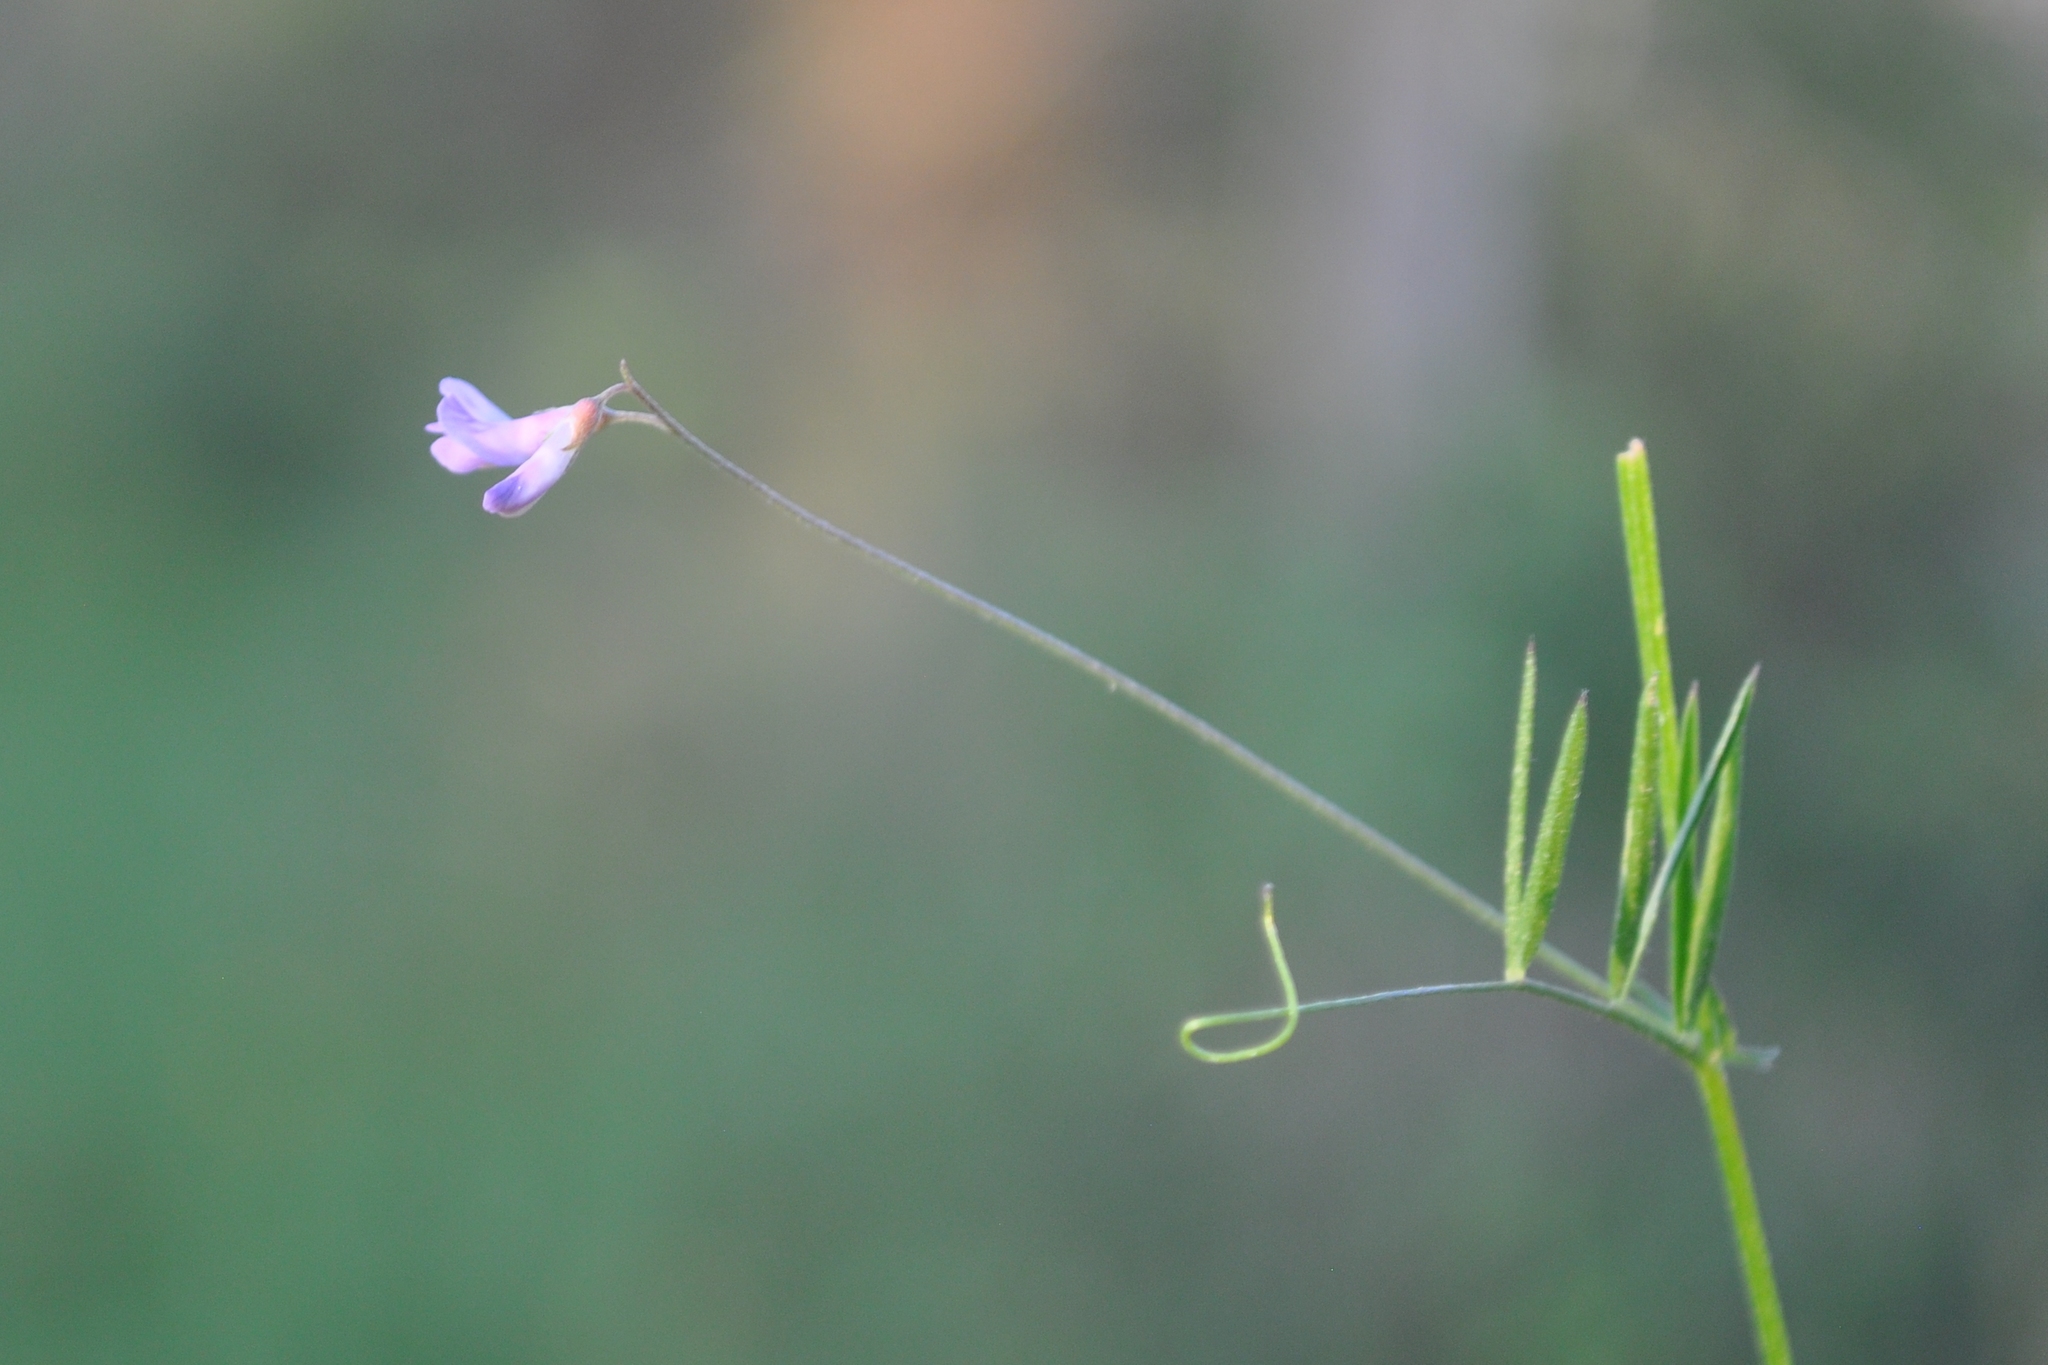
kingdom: Plantae
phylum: Tracheophyta
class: Magnoliopsida
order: Fabales
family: Fabaceae
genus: Vicia
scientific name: Vicia parviflora
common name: Slender tare
